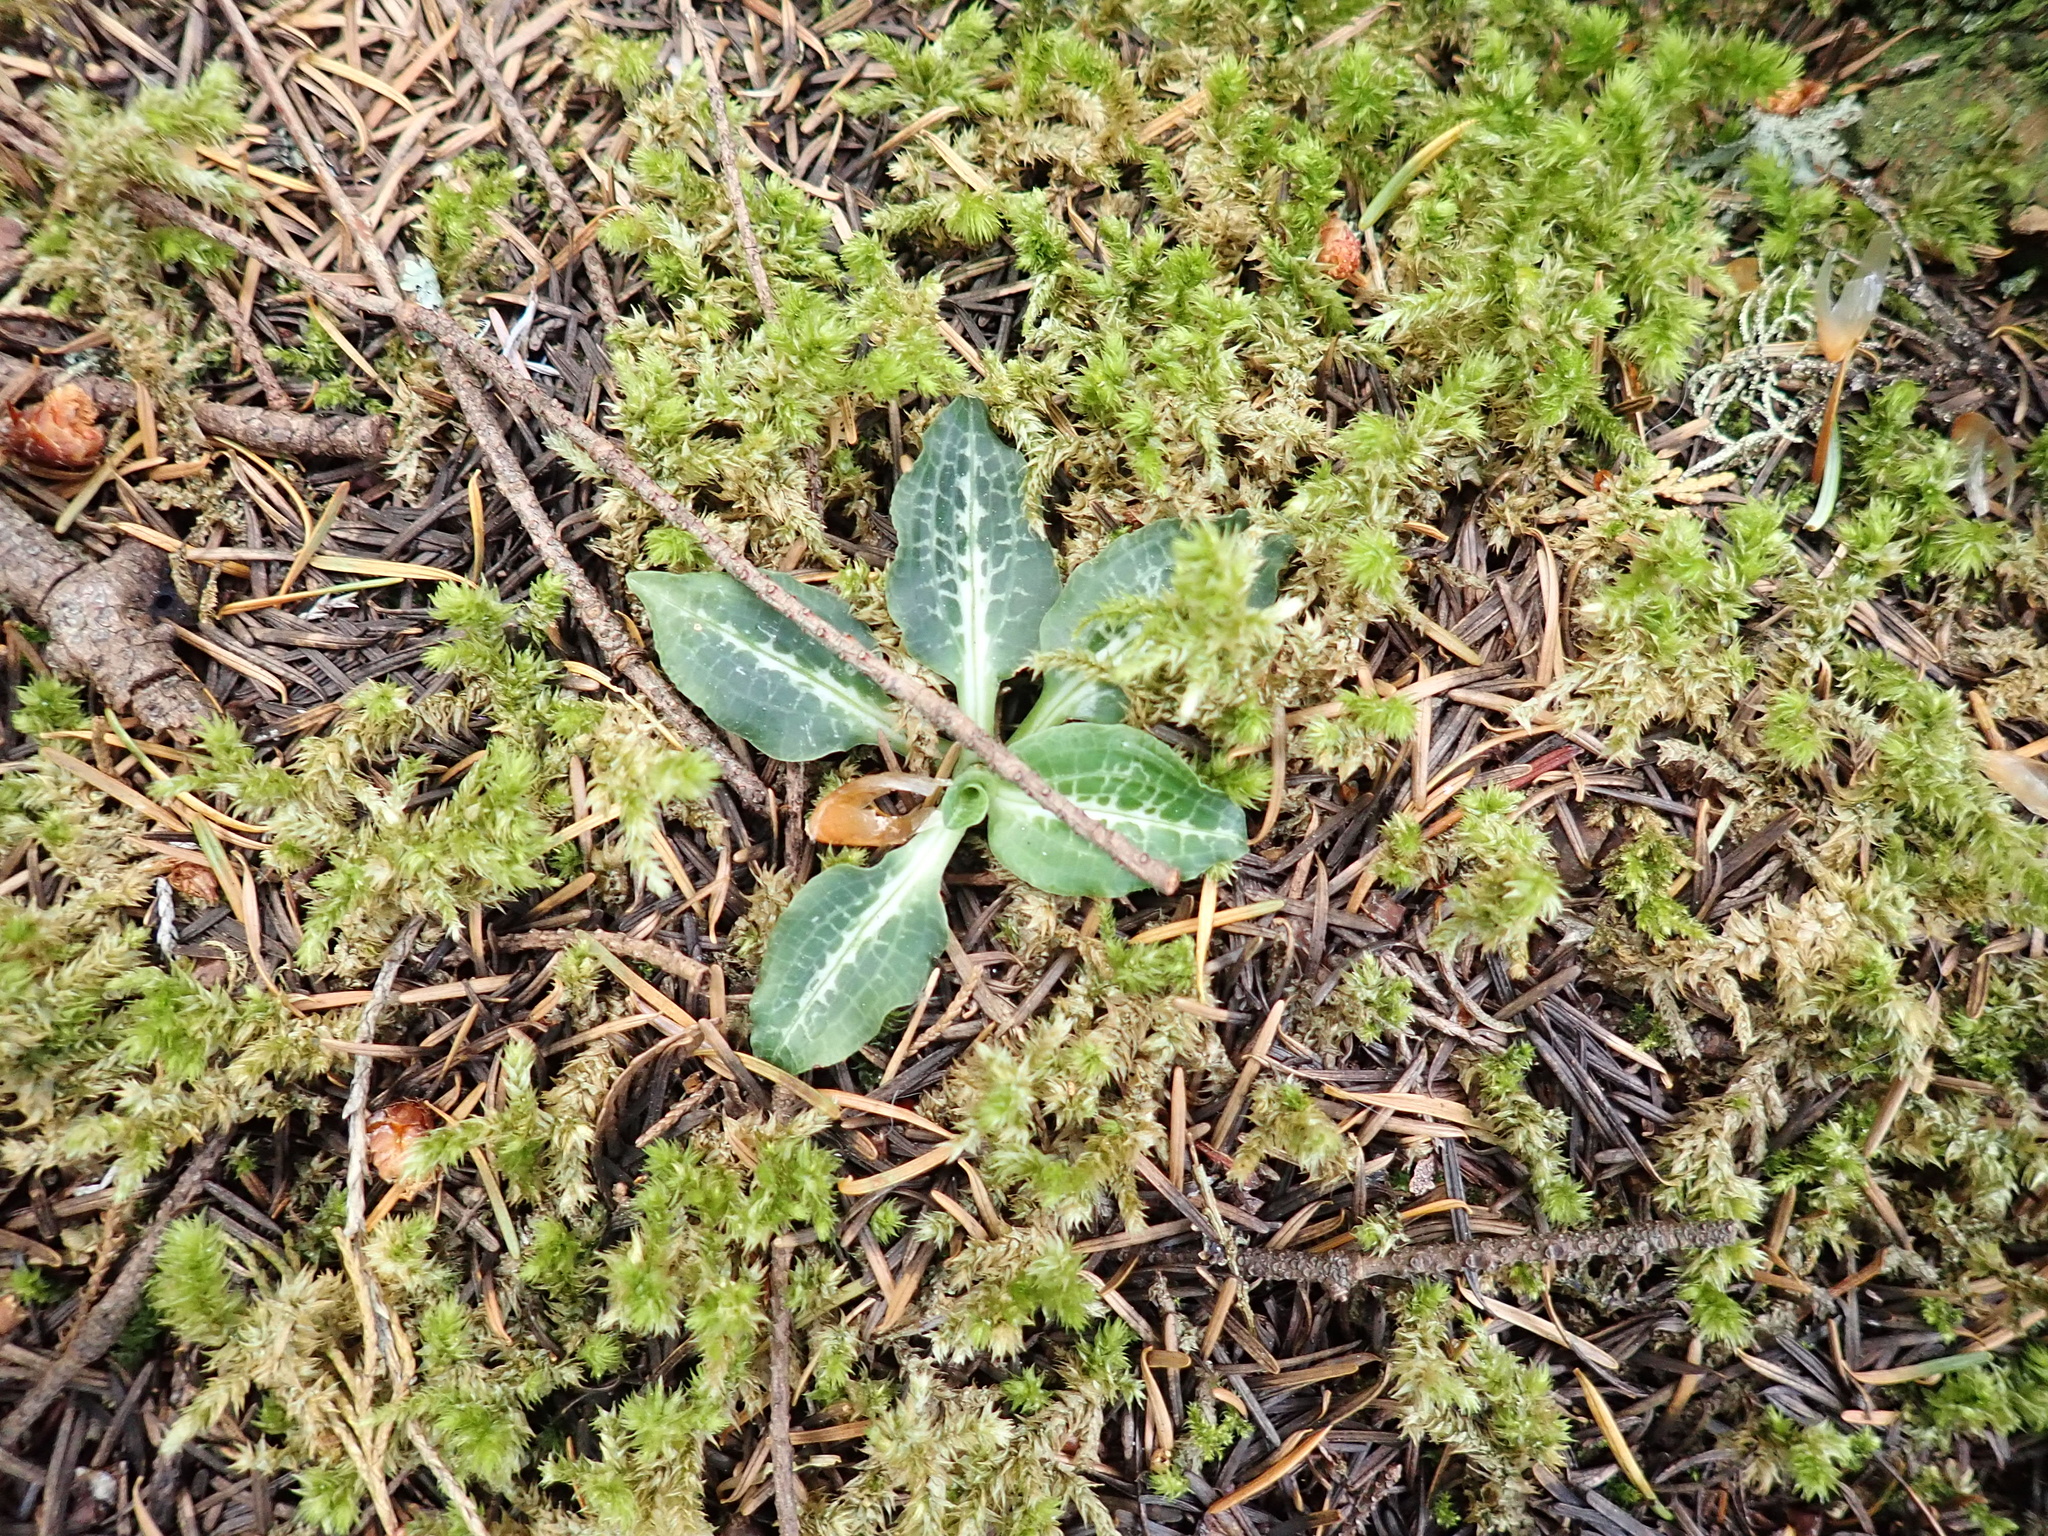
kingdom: Plantae
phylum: Tracheophyta
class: Liliopsida
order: Asparagales
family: Orchidaceae
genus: Goodyera
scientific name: Goodyera oblongifolia
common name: Giant rattlesnake-plantain
